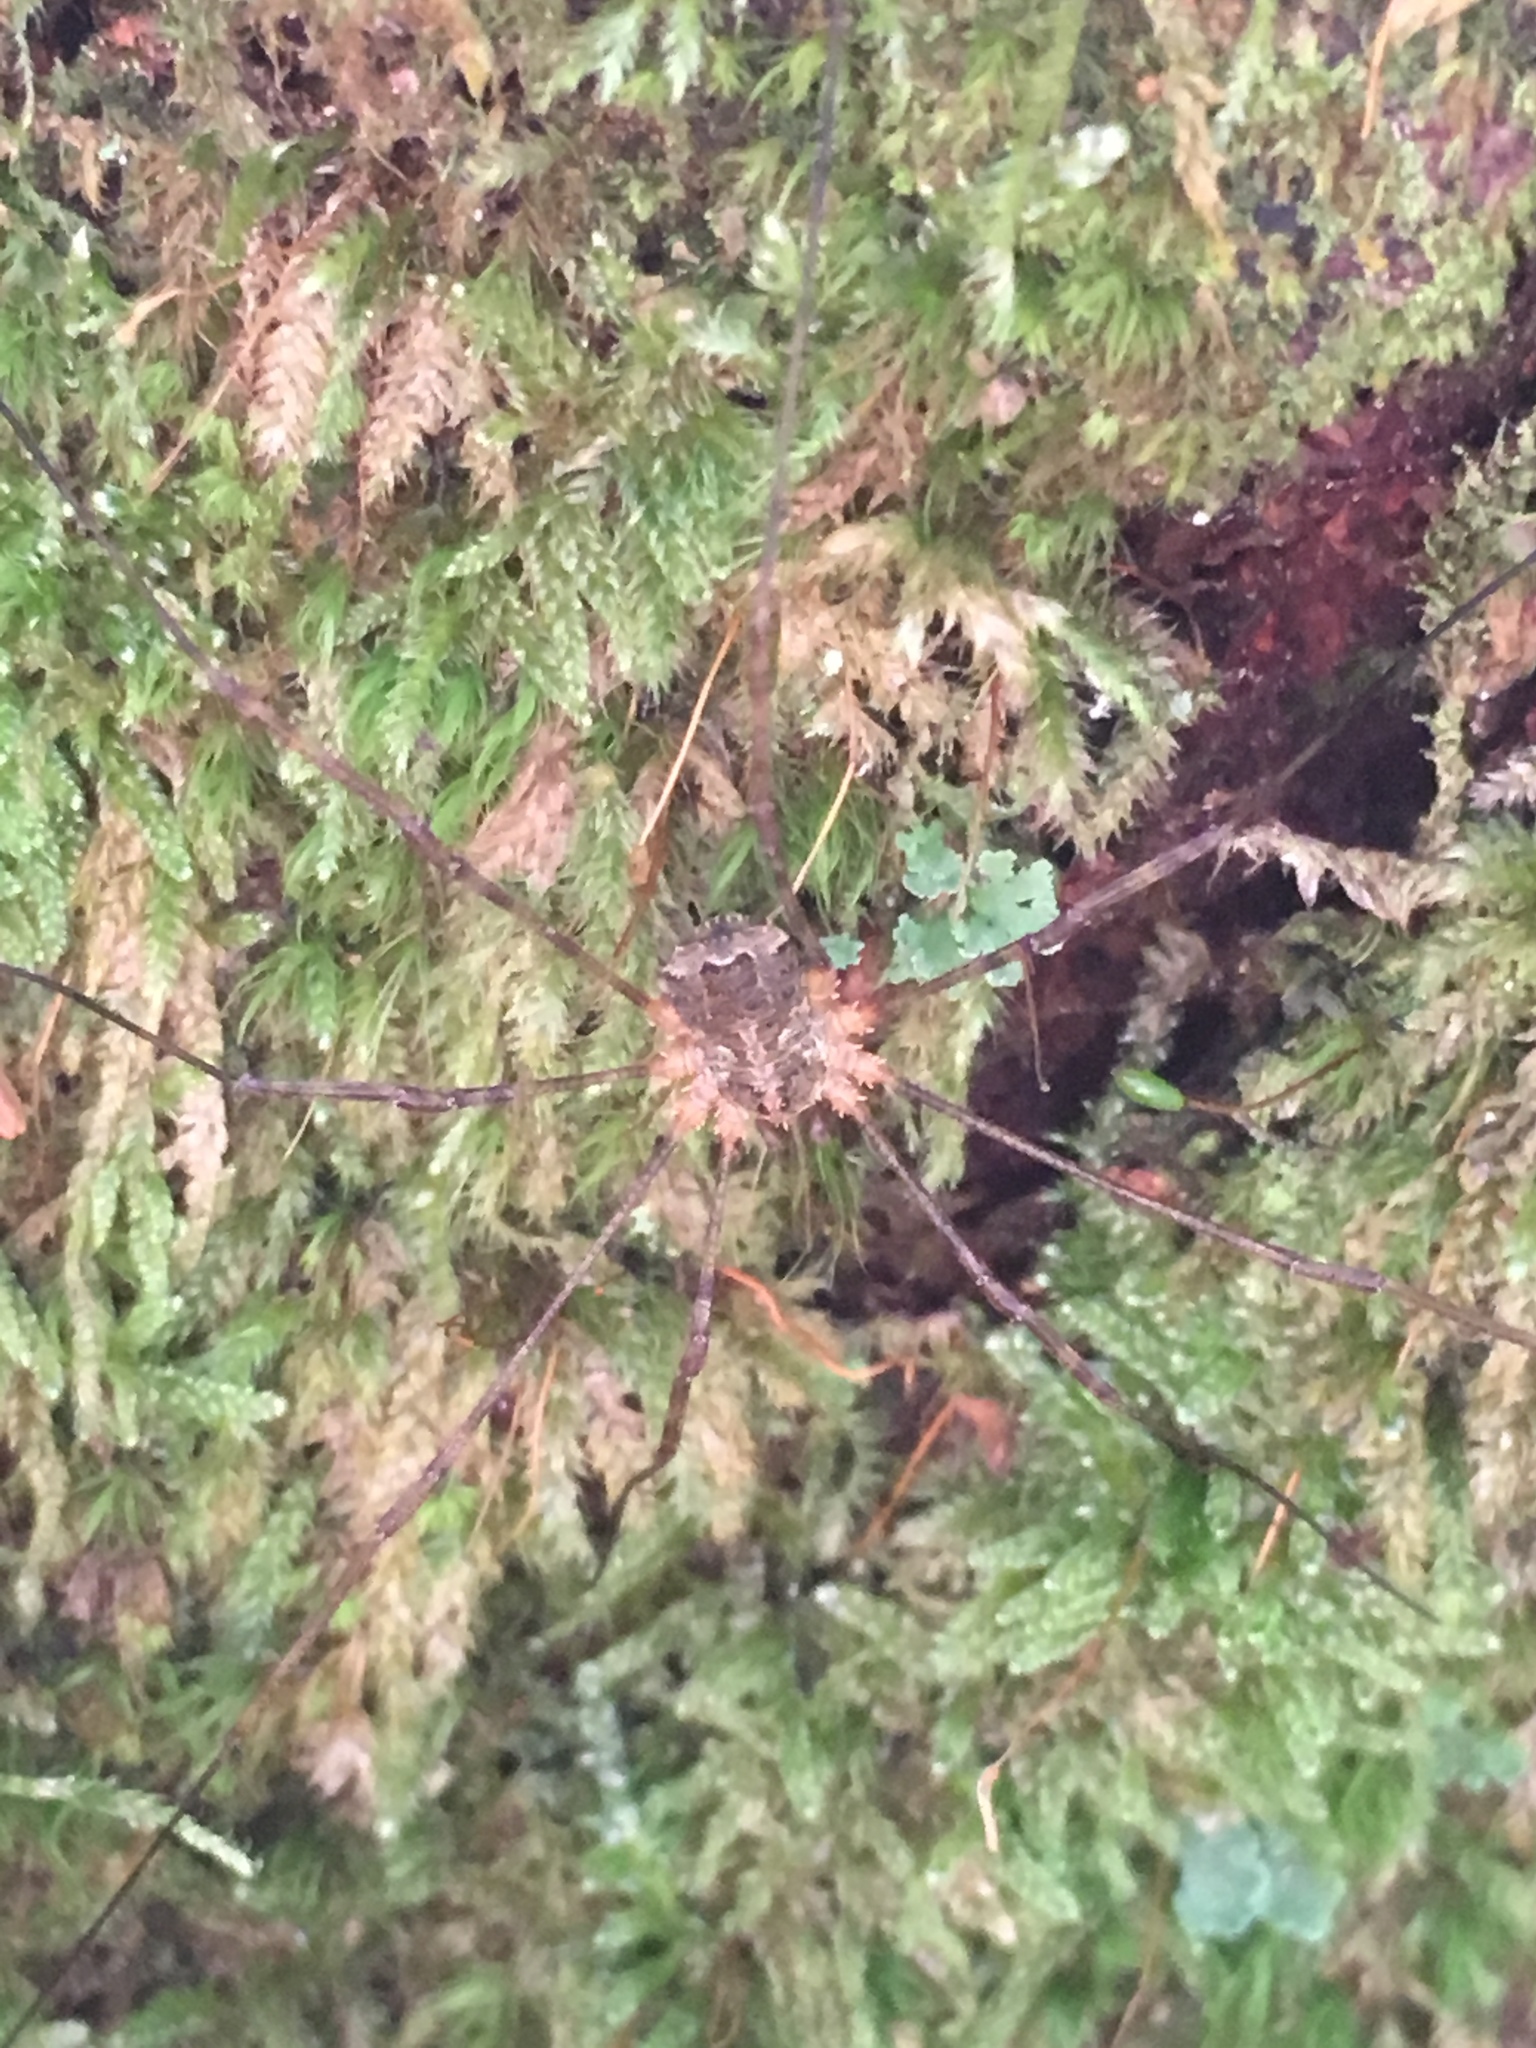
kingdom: Animalia
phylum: Arthropoda
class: Arachnida
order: Opiliones
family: Phalangiidae
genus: Lacinius
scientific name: Lacinius dentiger
